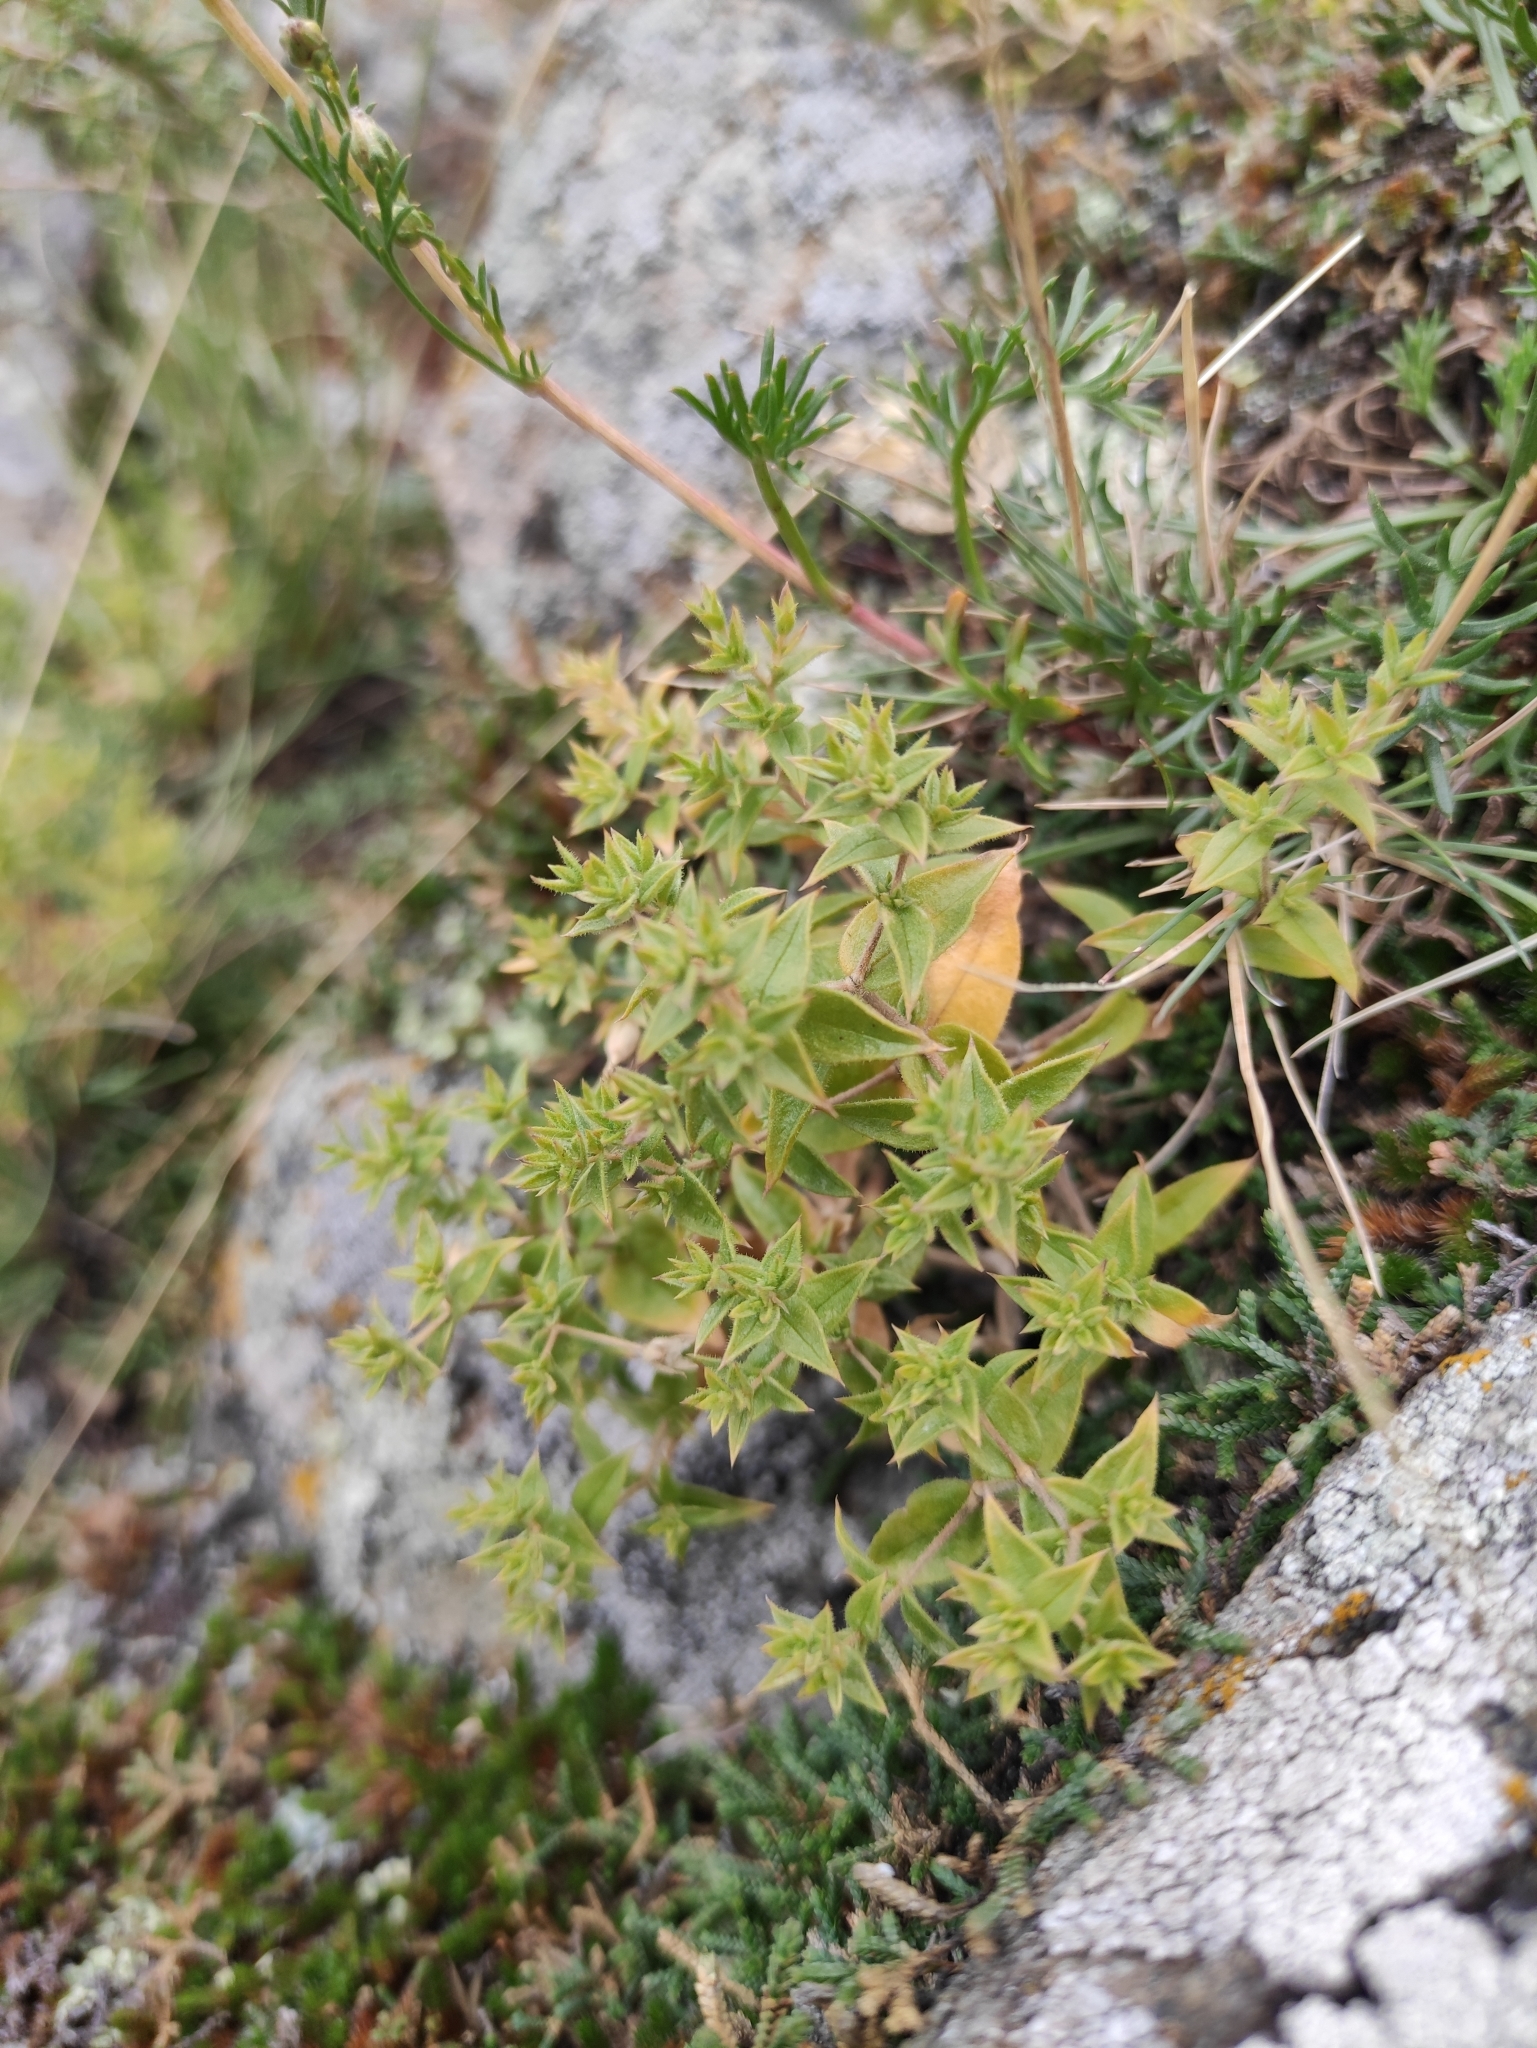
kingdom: Plantae
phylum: Tracheophyta
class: Magnoliopsida
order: Caryophyllales
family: Caryophyllaceae
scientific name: Caryophyllaceae
